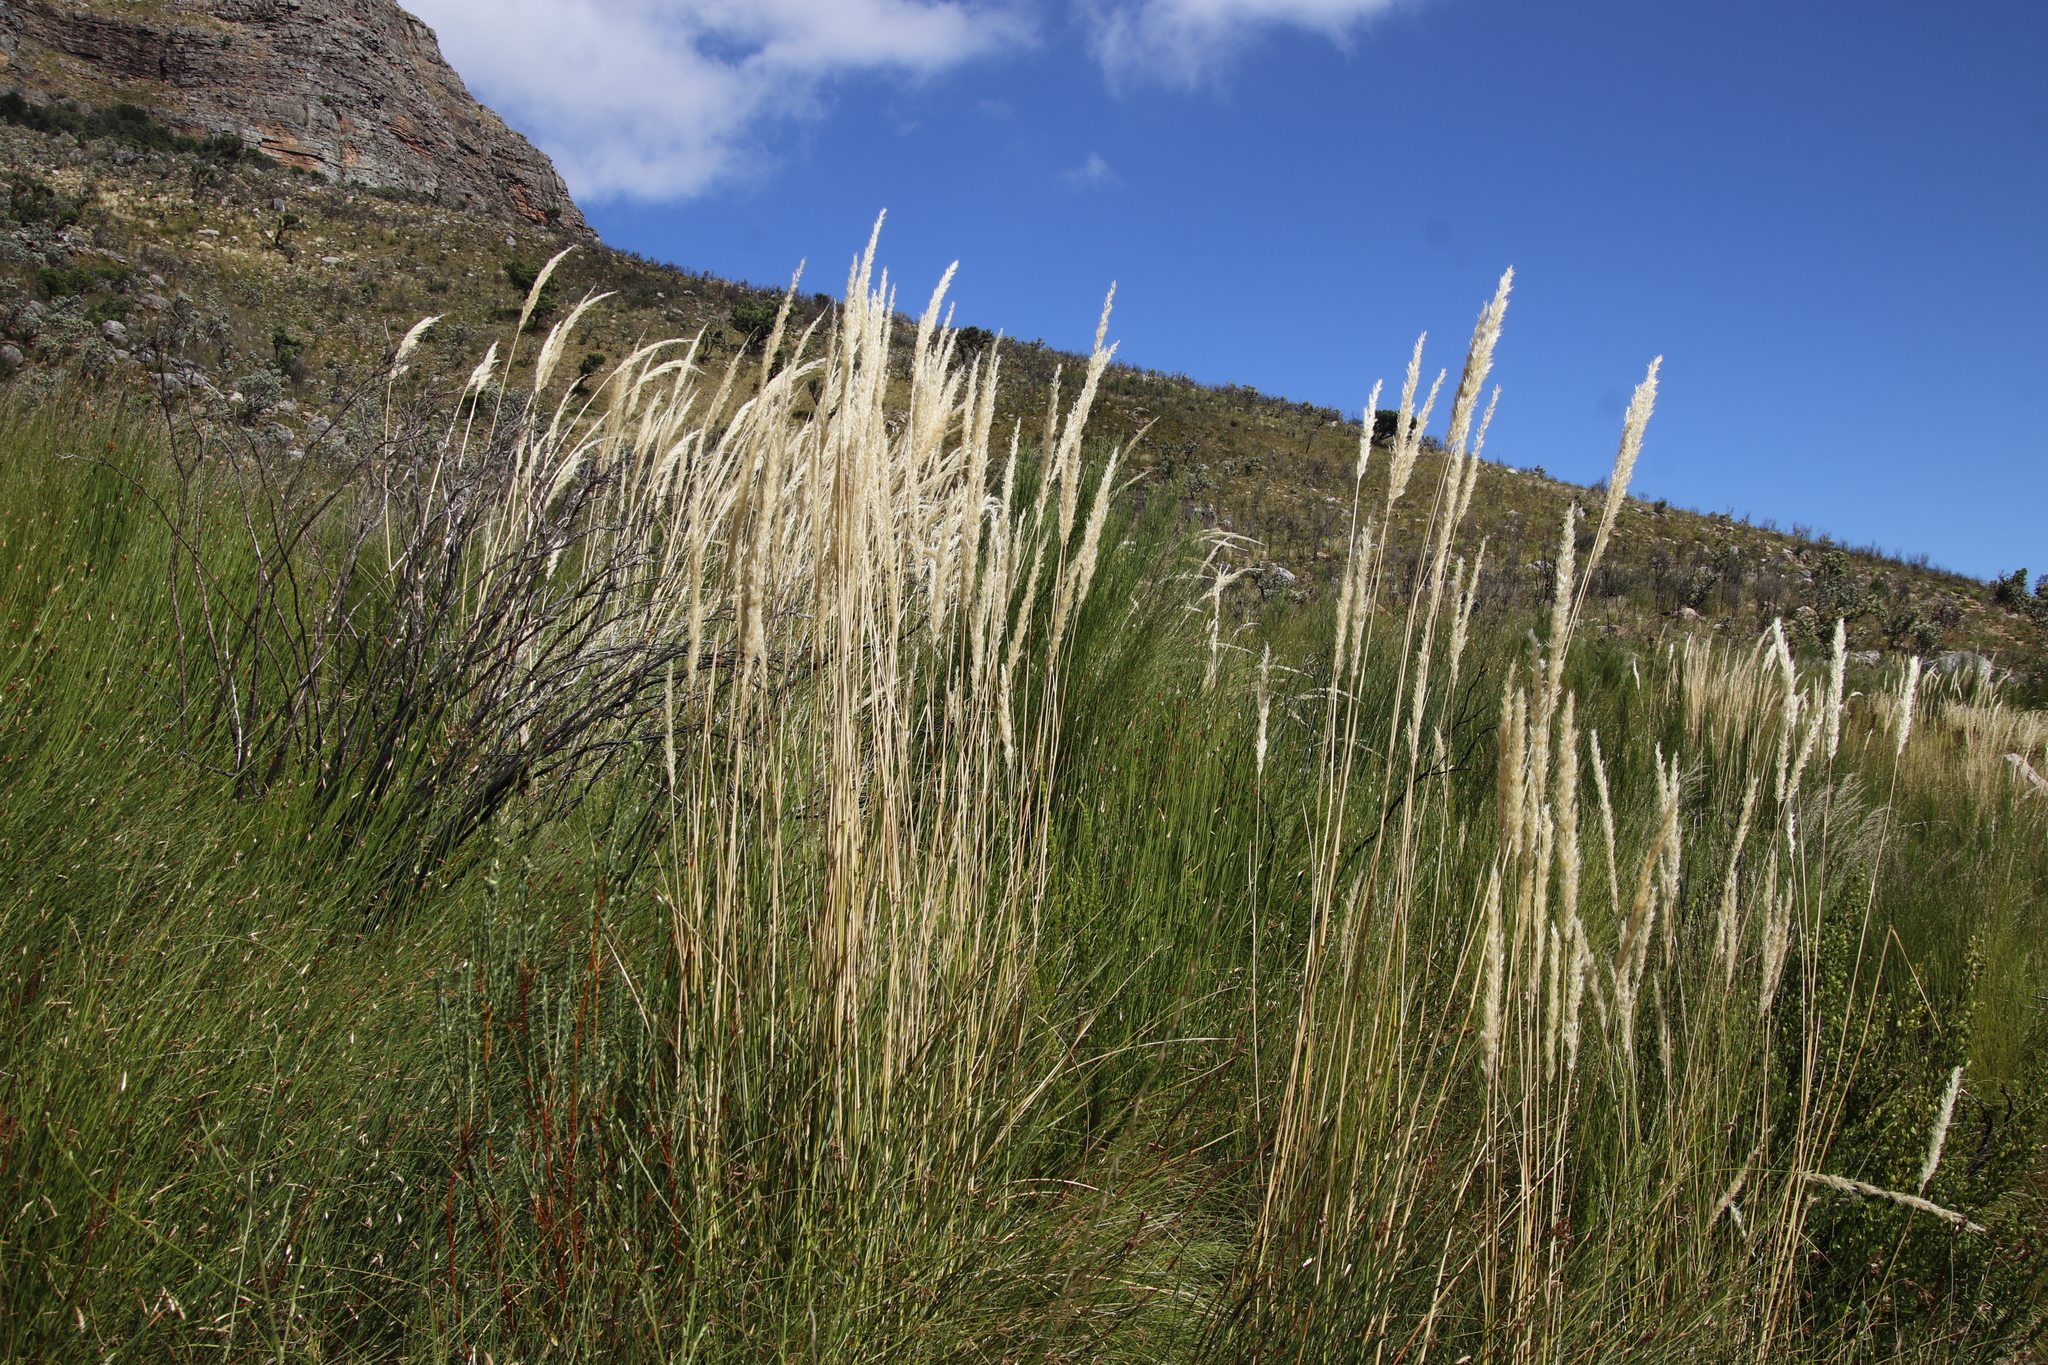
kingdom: Plantae
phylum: Tracheophyta
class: Liliopsida
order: Poales
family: Poaceae
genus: Capeochloa
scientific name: Capeochloa cincta
